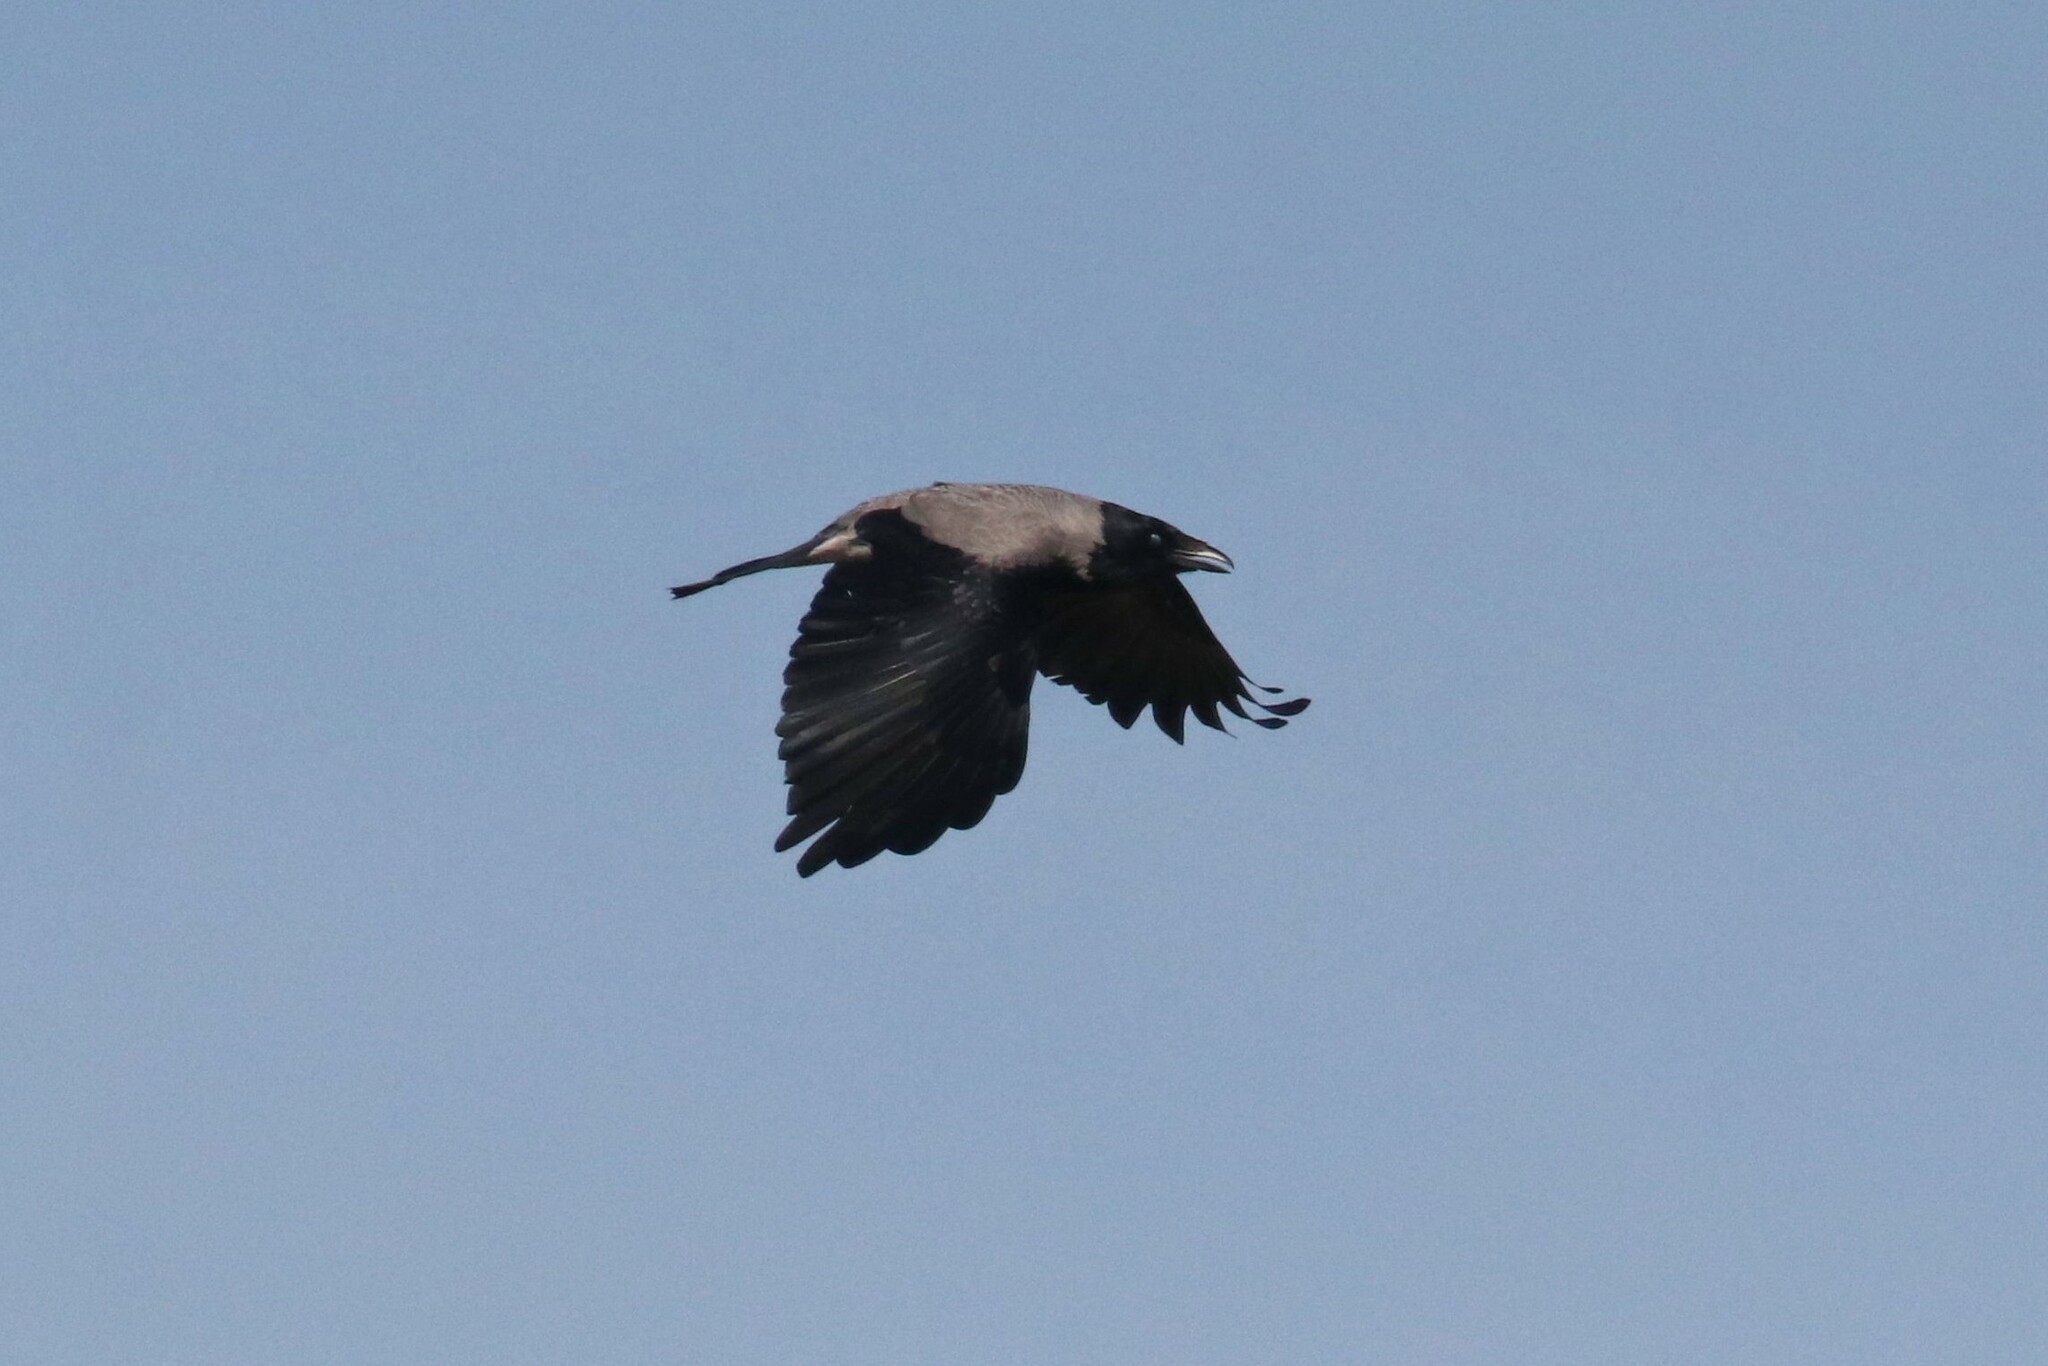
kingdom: Animalia
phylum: Chordata
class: Aves
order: Passeriformes
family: Corvidae
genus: Corvus
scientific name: Corvus cornix
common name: Hooded crow
